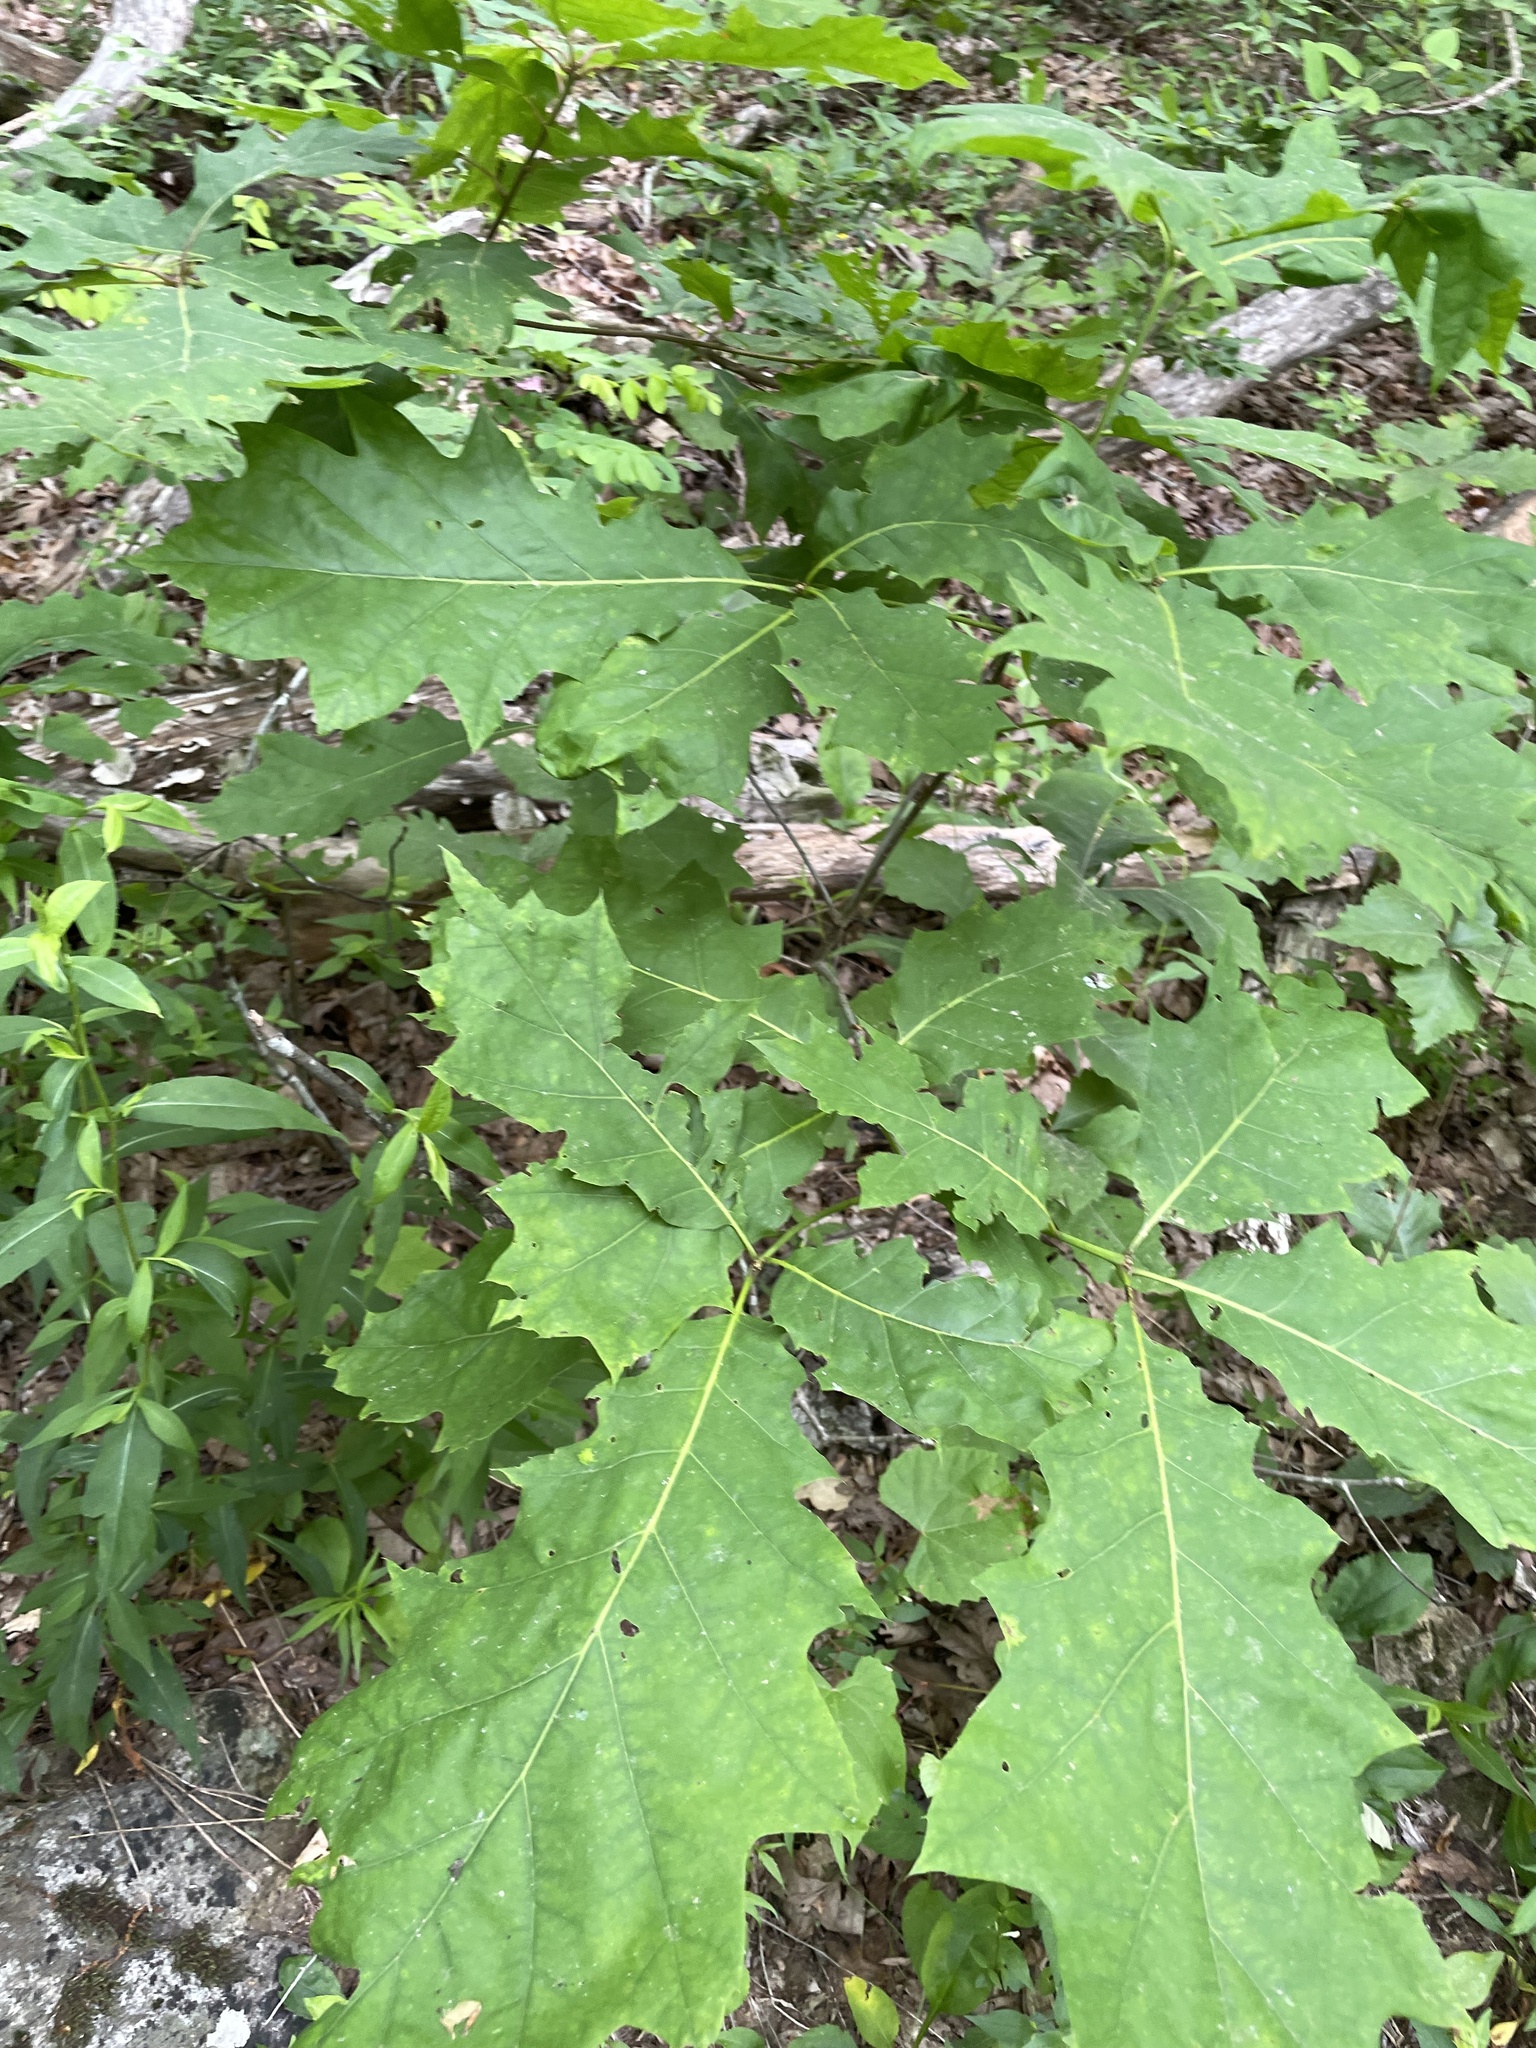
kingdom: Plantae
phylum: Tracheophyta
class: Magnoliopsida
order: Fagales
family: Fagaceae
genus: Quercus
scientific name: Quercus rubra
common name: Red oak
